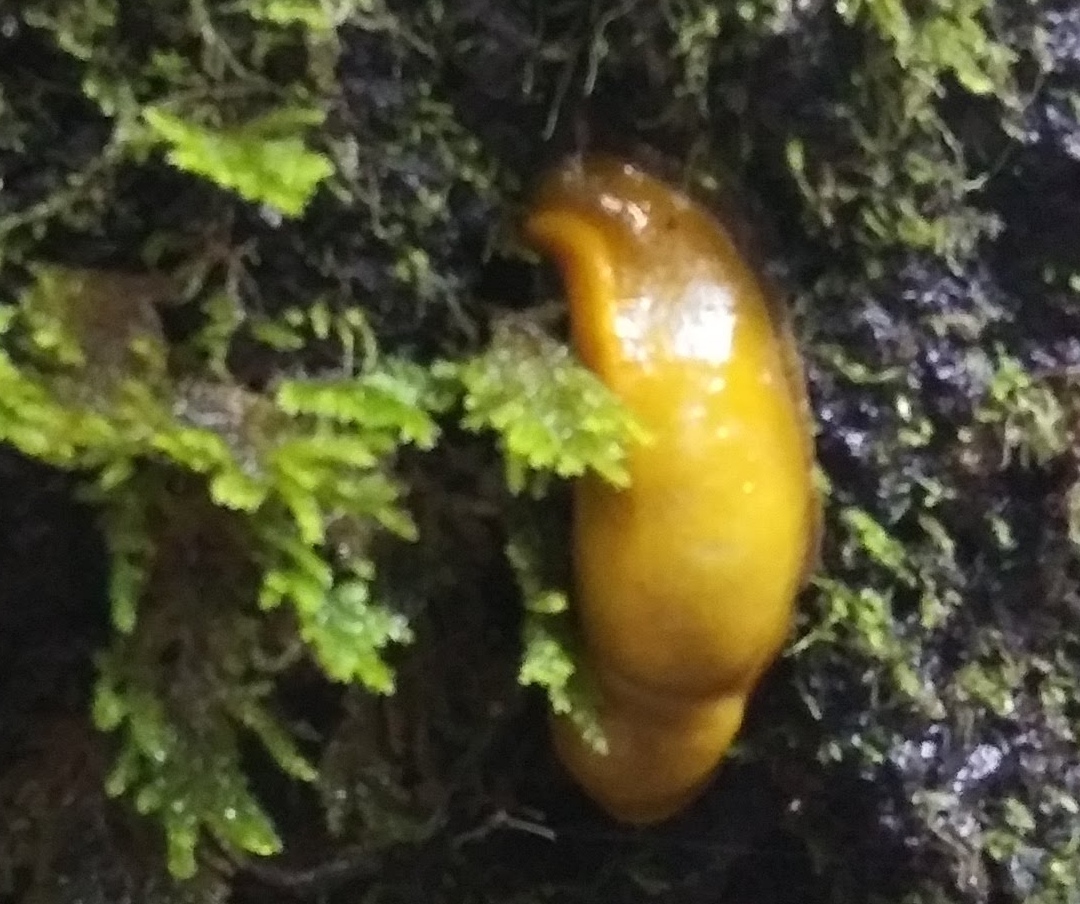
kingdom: Animalia
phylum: Mollusca
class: Gastropoda
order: Stylommatophora
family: Ariolimacidae
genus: Ariolimax
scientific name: Ariolimax dolichophallus
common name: Slender banana slug
